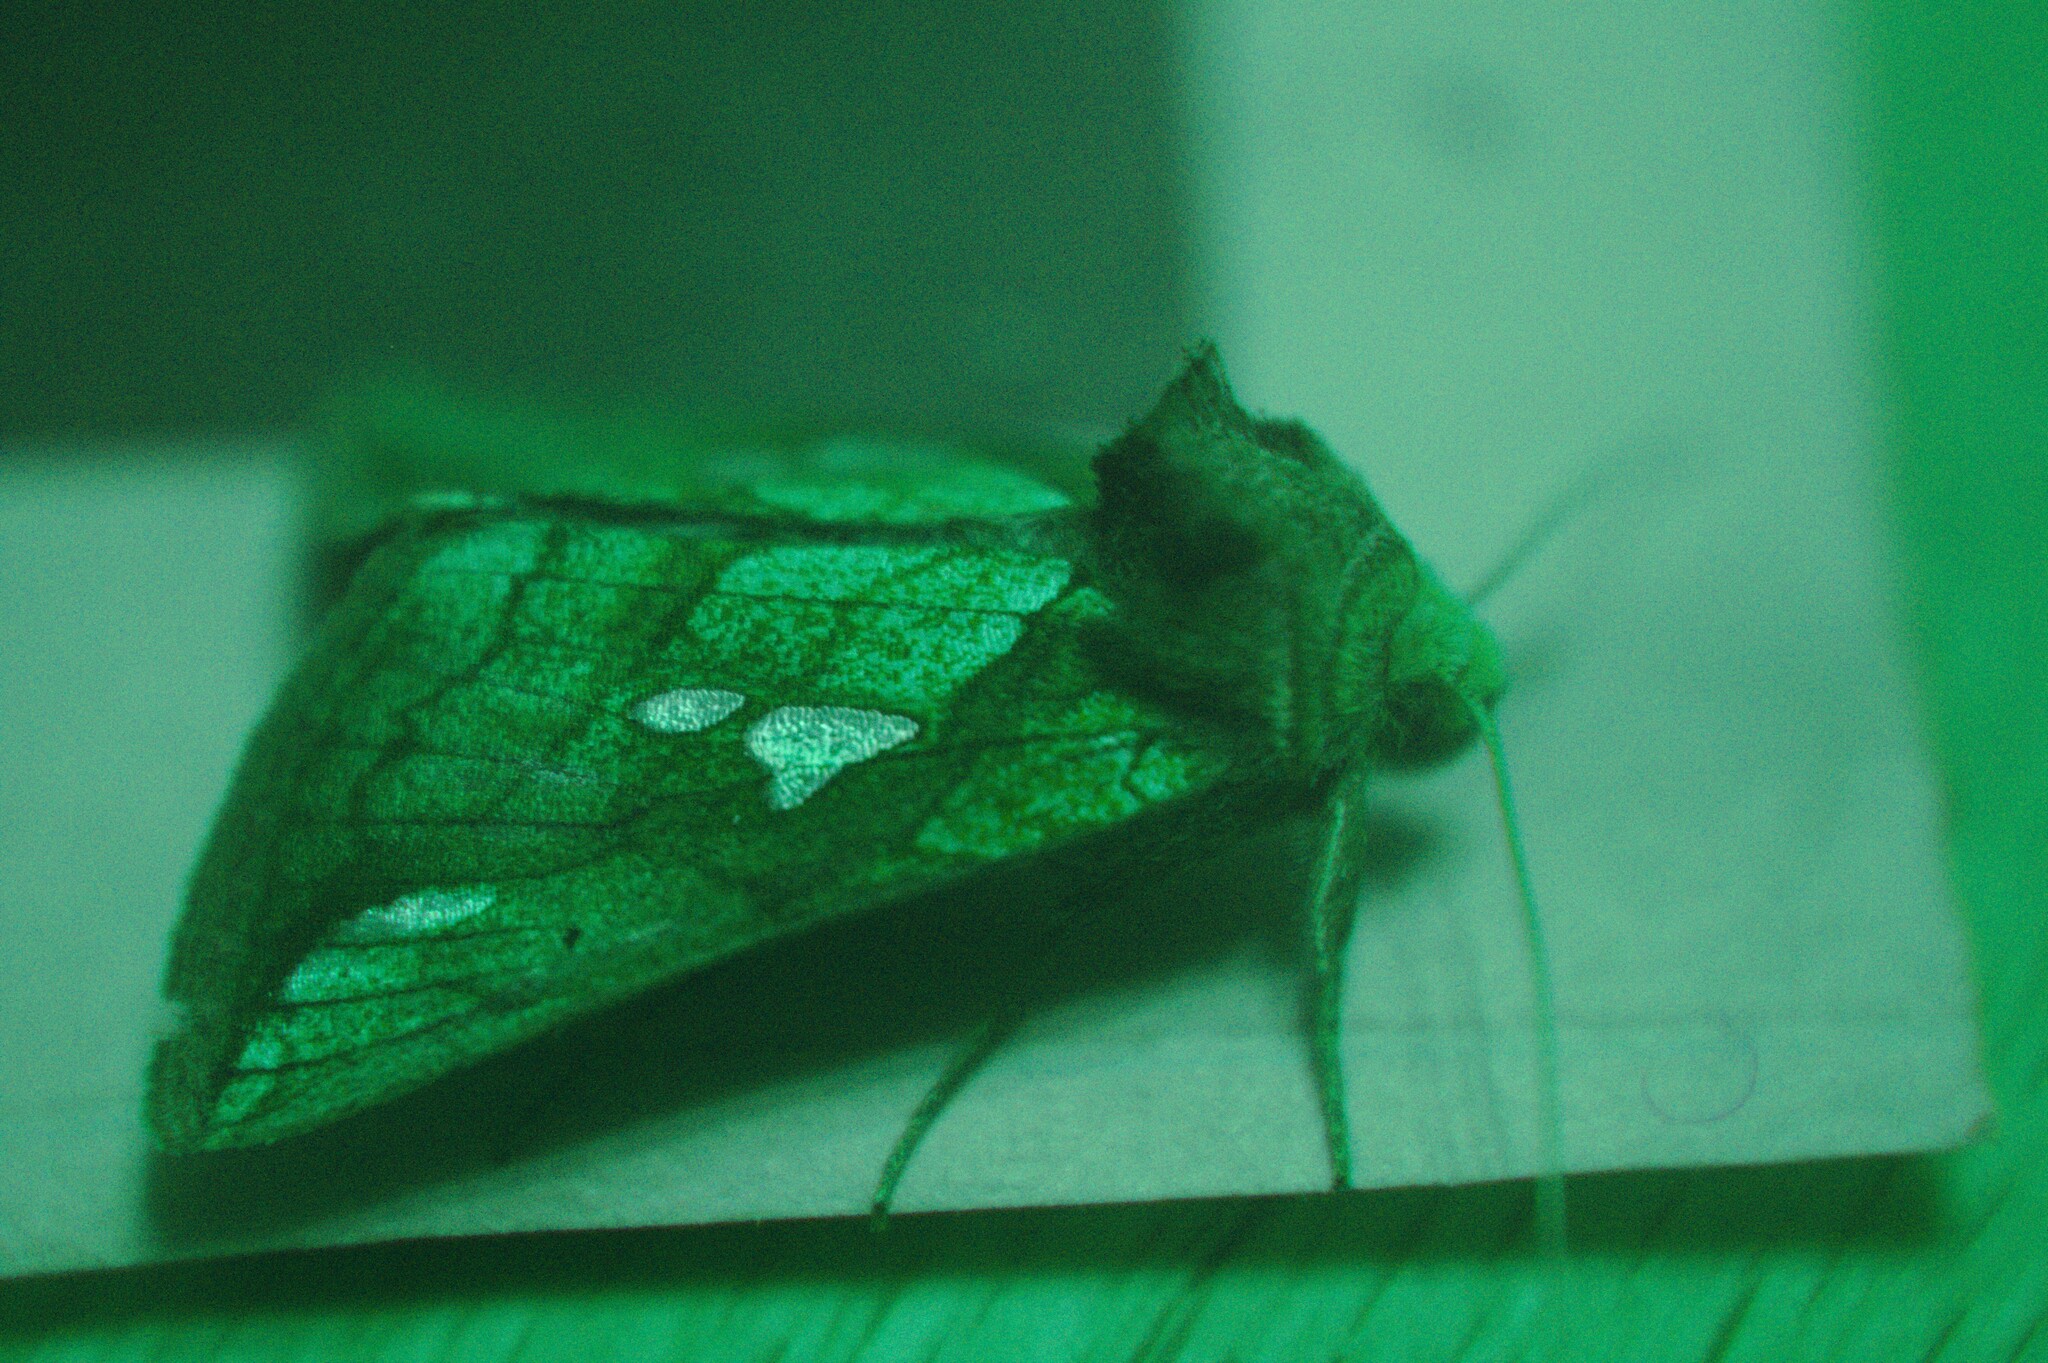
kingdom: Animalia
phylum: Arthropoda
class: Insecta
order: Lepidoptera
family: Noctuidae
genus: Plusia
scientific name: Plusia putnami
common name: Lempke's gold spot
